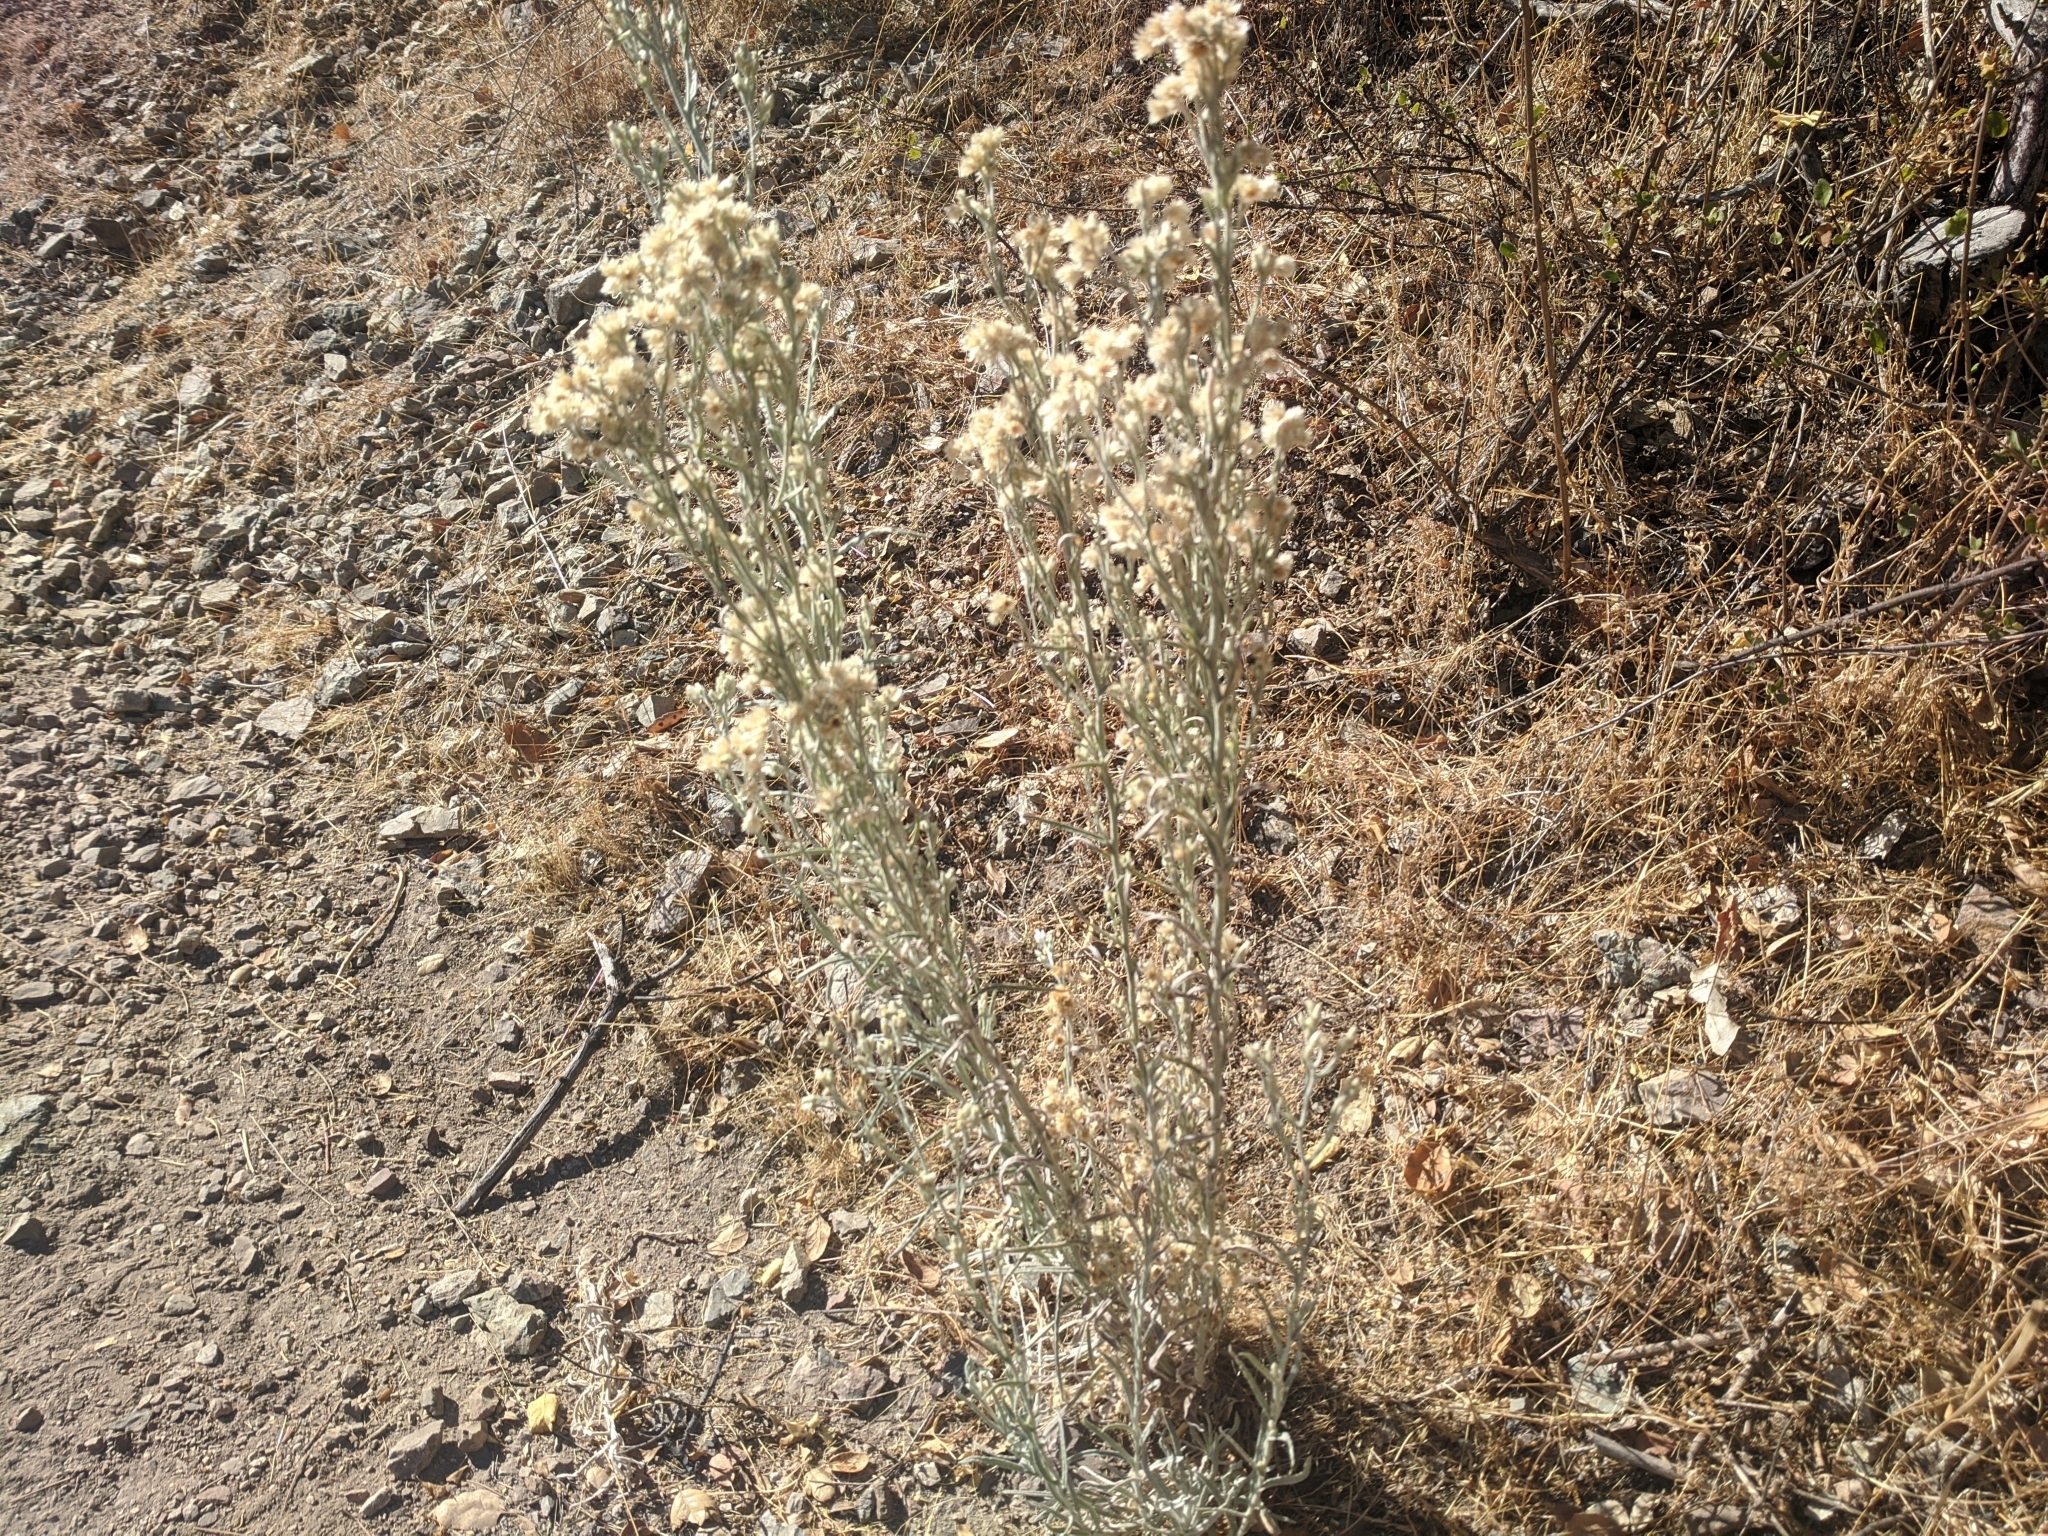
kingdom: Plantae
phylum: Tracheophyta
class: Magnoliopsida
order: Asterales
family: Asteraceae
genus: Pseudognaphalium
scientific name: Pseudognaphalium beneolens
